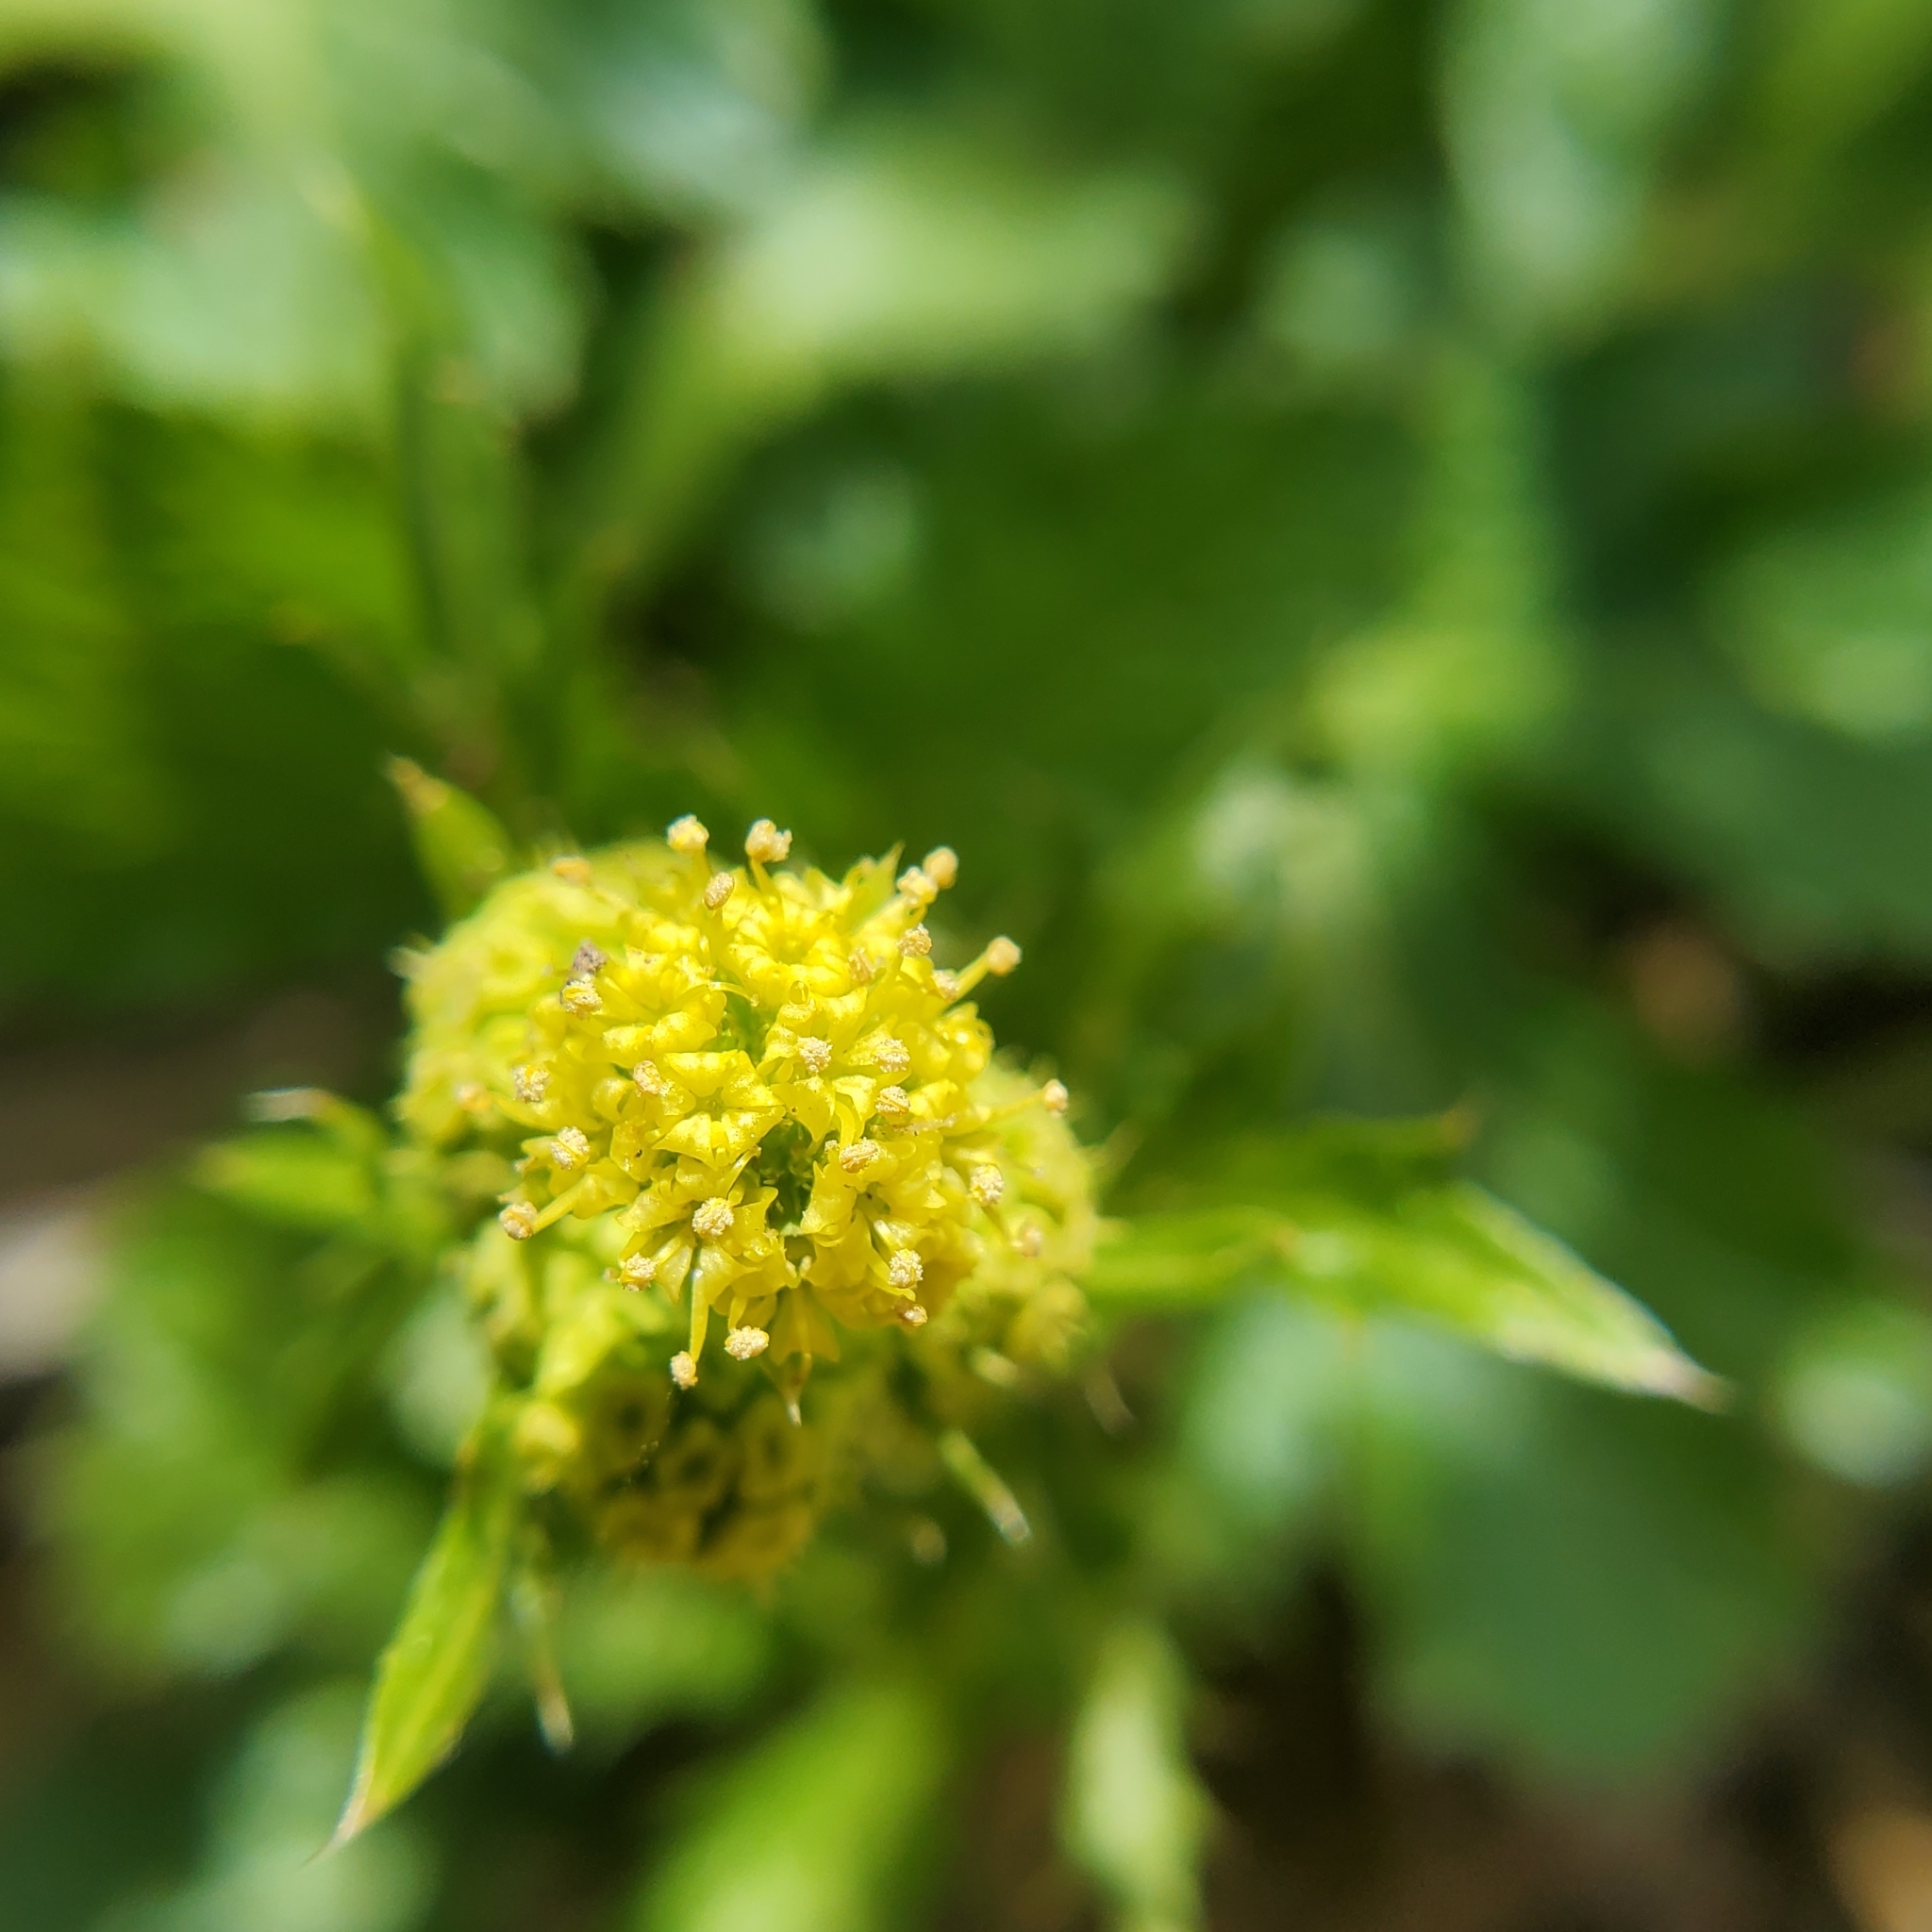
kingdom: Plantae
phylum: Tracheophyta
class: Magnoliopsida
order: Apiales
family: Apiaceae
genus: Sanicula
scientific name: Sanicula crassicaulis
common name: Western snakeroot
